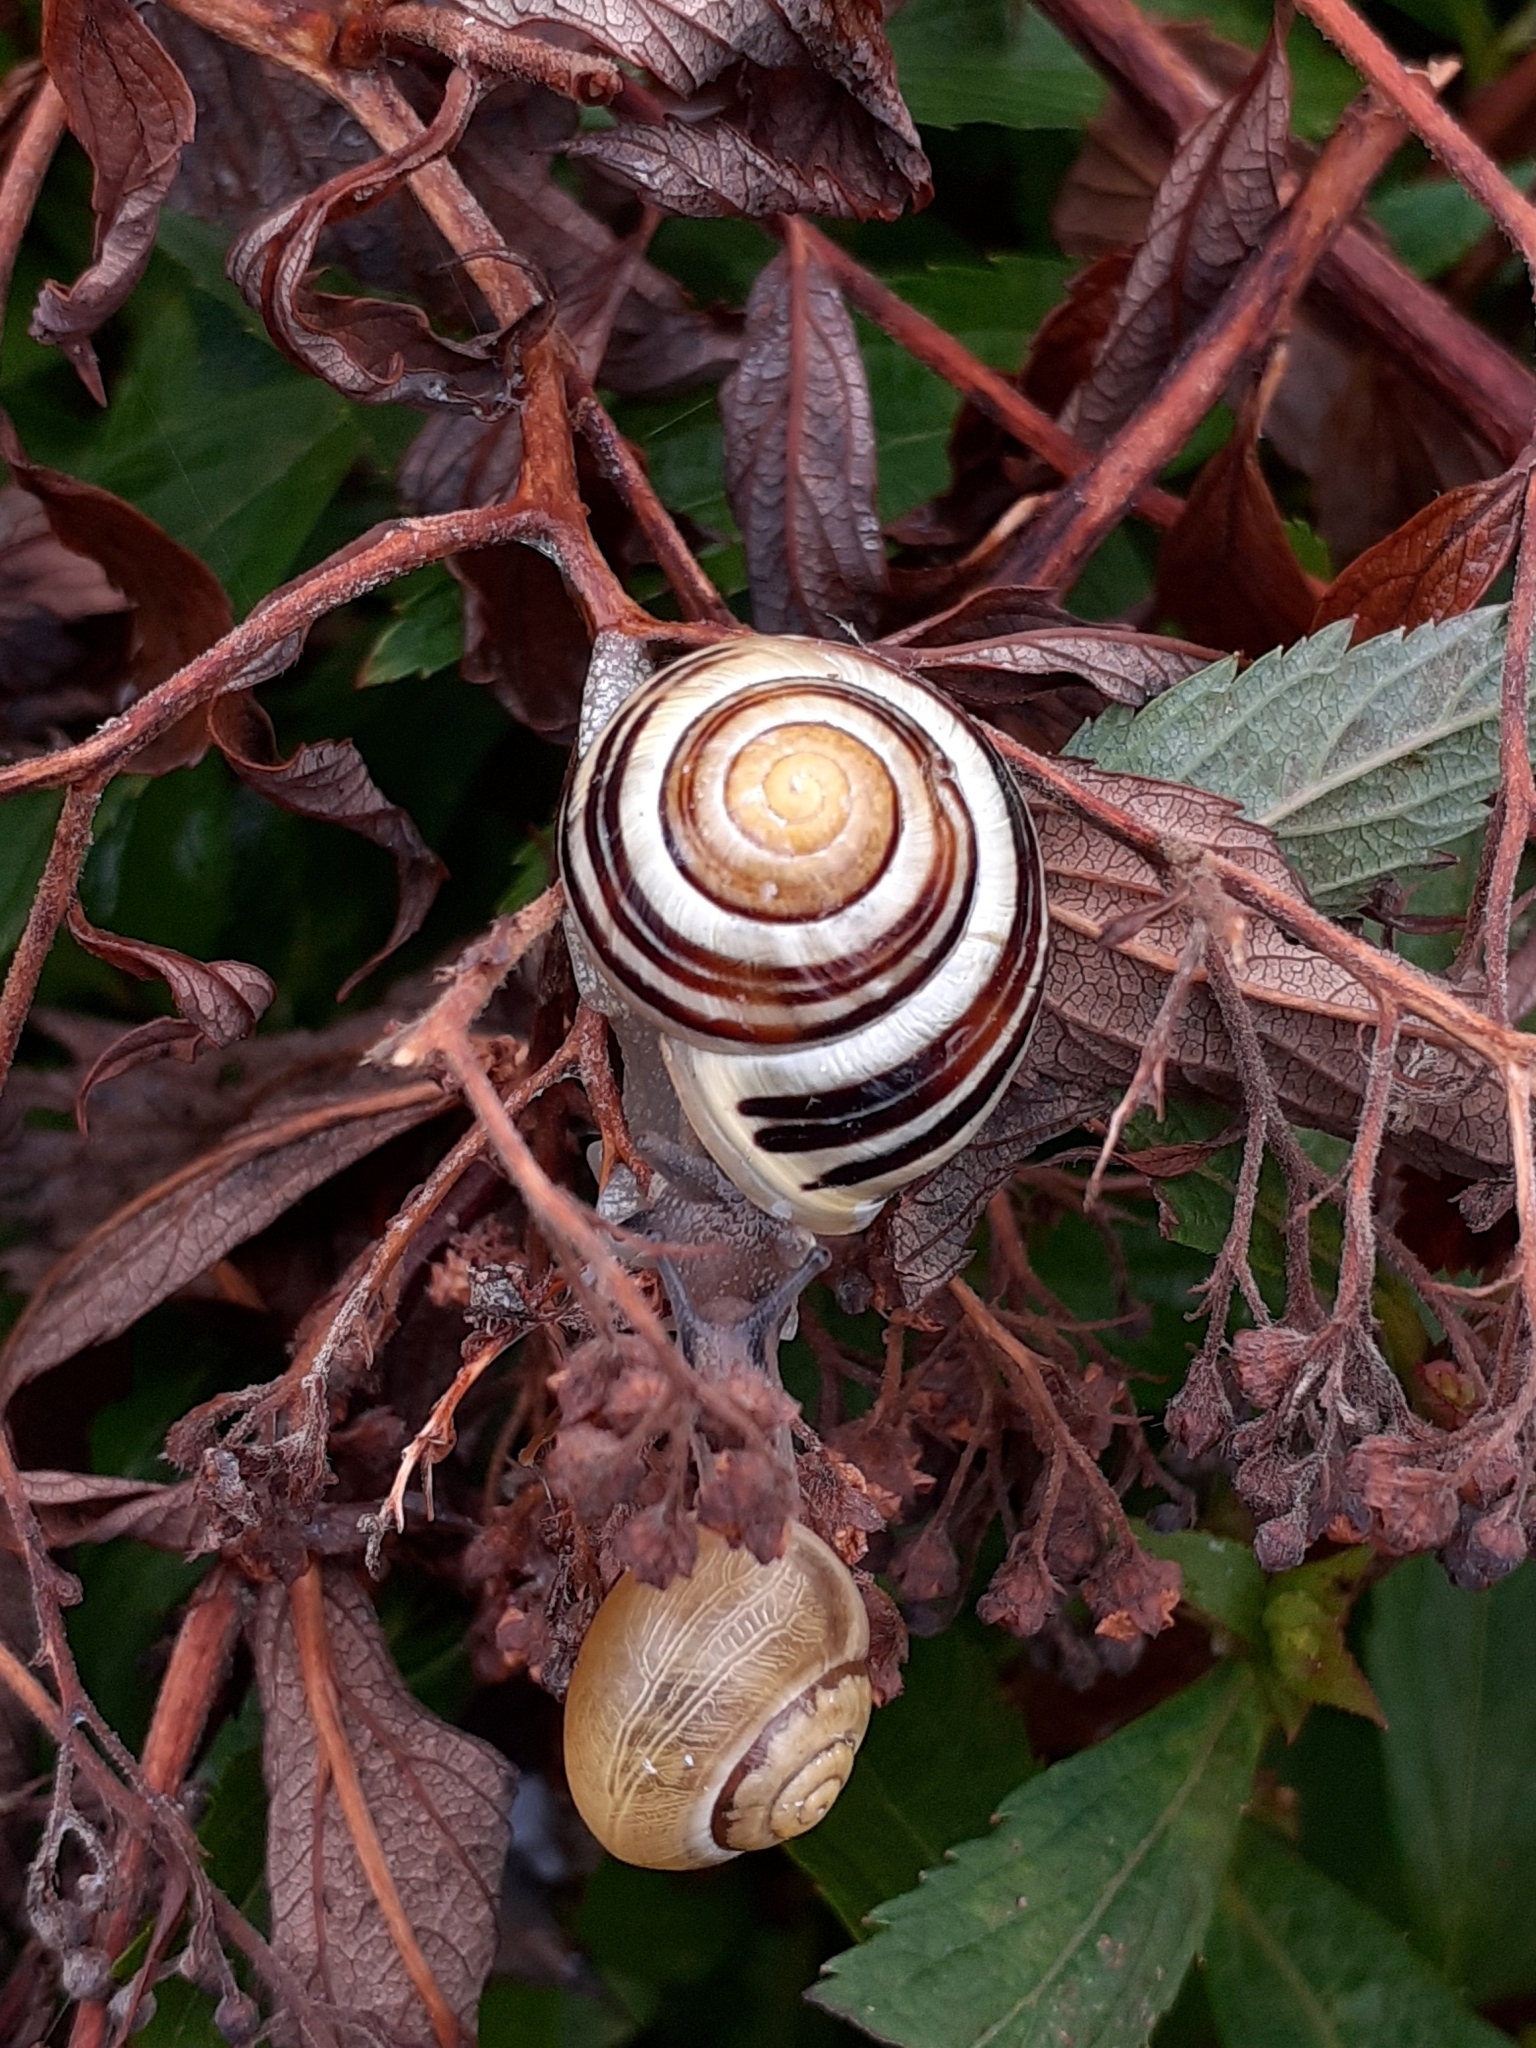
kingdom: Animalia
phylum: Mollusca
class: Gastropoda
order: Stylommatophora
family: Helicidae
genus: Cepaea
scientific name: Cepaea hortensis
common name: White-lip gardensnail
